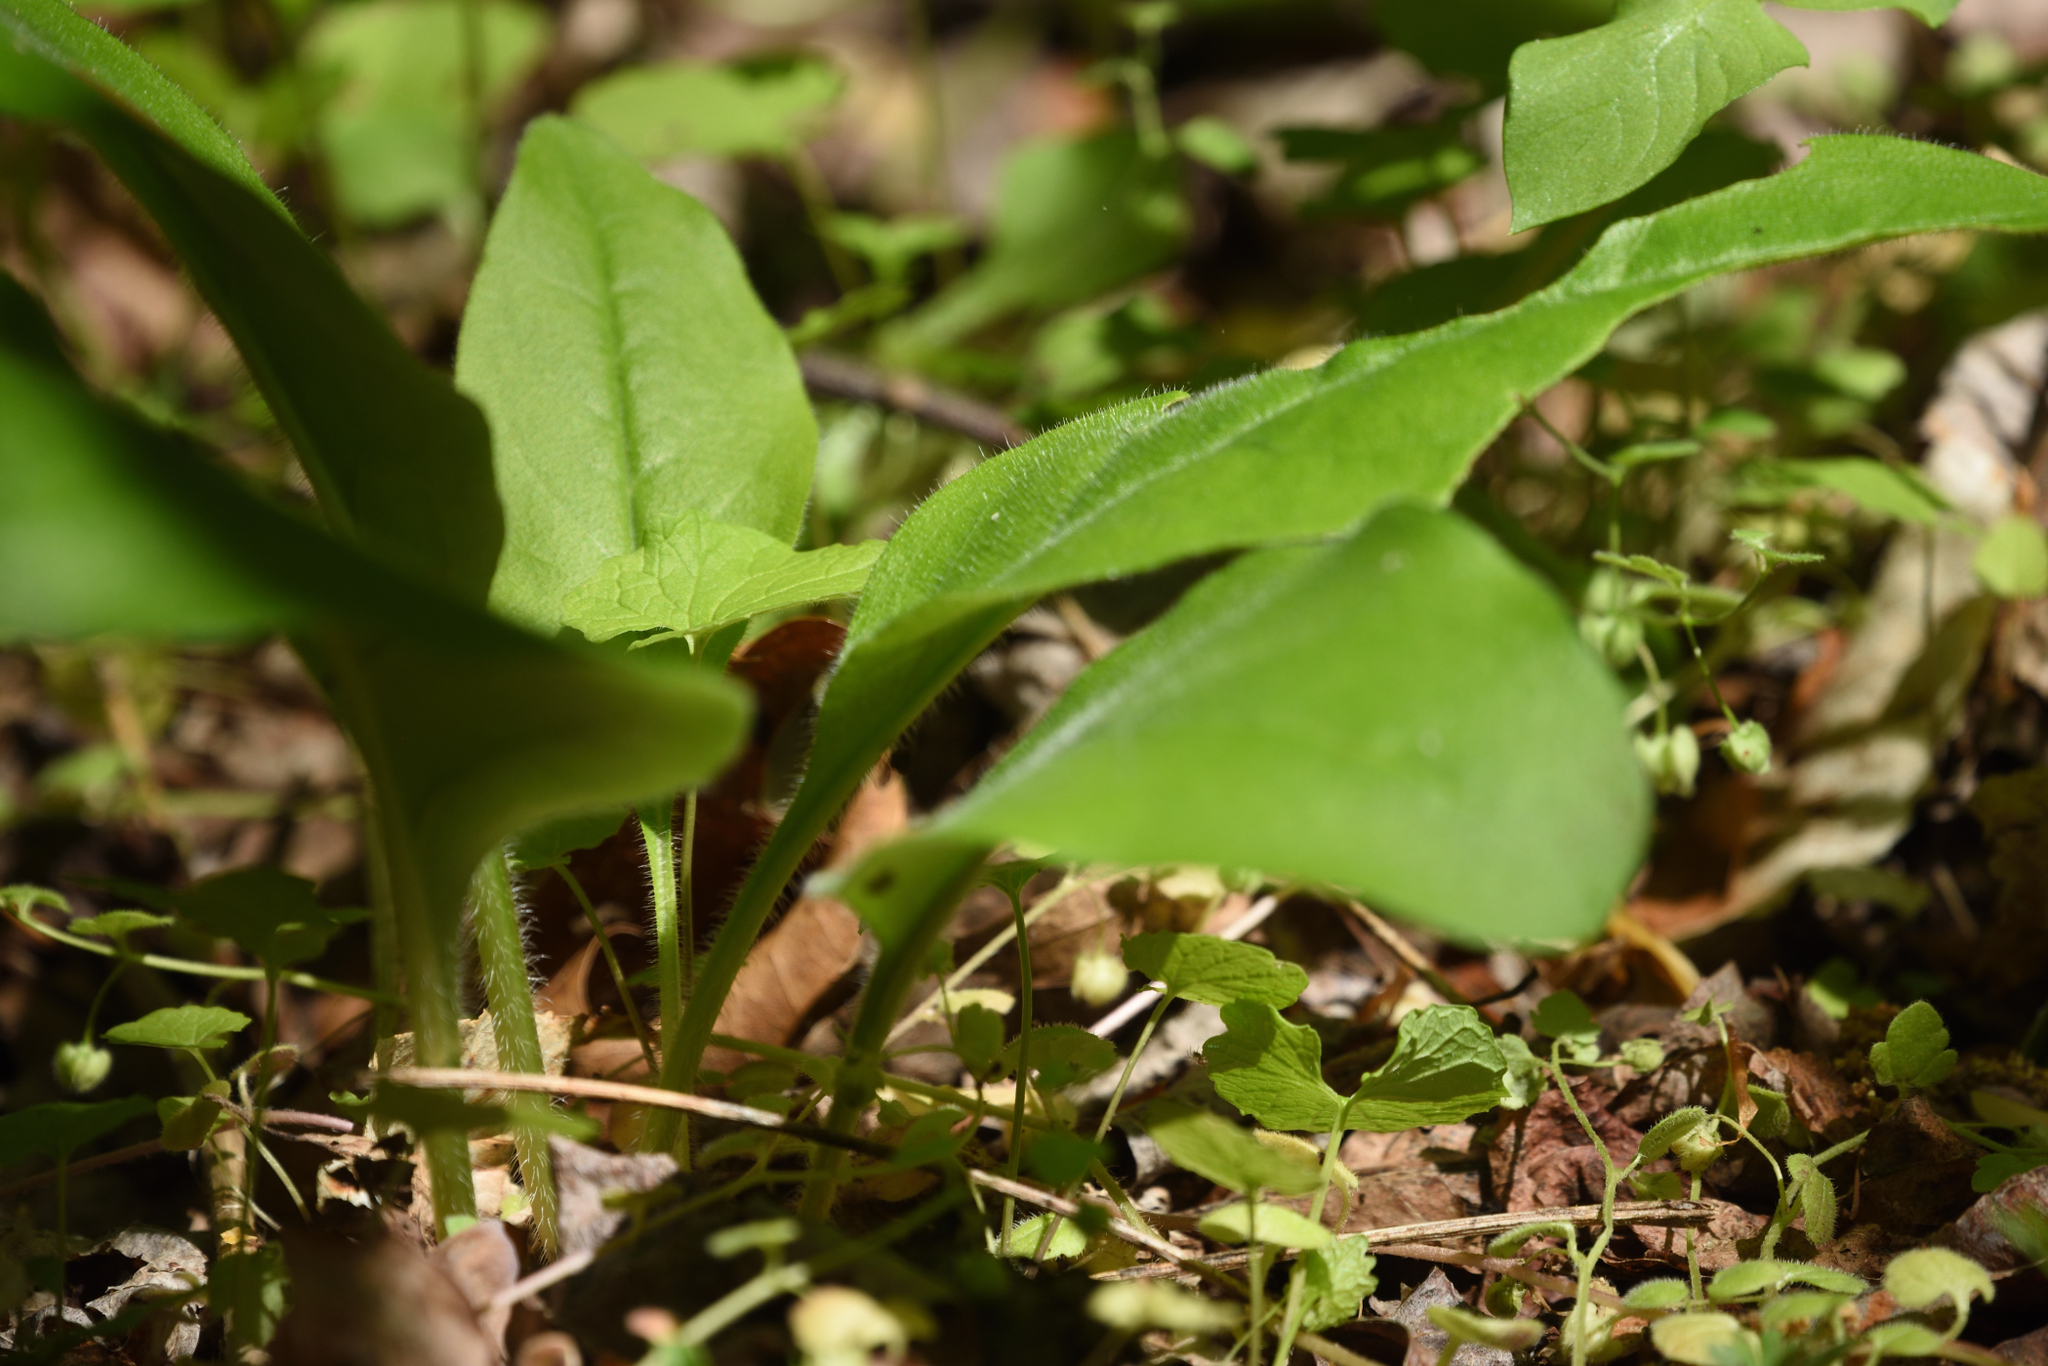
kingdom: Plantae
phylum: Tracheophyta
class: Magnoliopsida
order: Boraginales
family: Boraginaceae
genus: Andersonglossum
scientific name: Andersonglossum virginianum
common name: Wild comfrey
